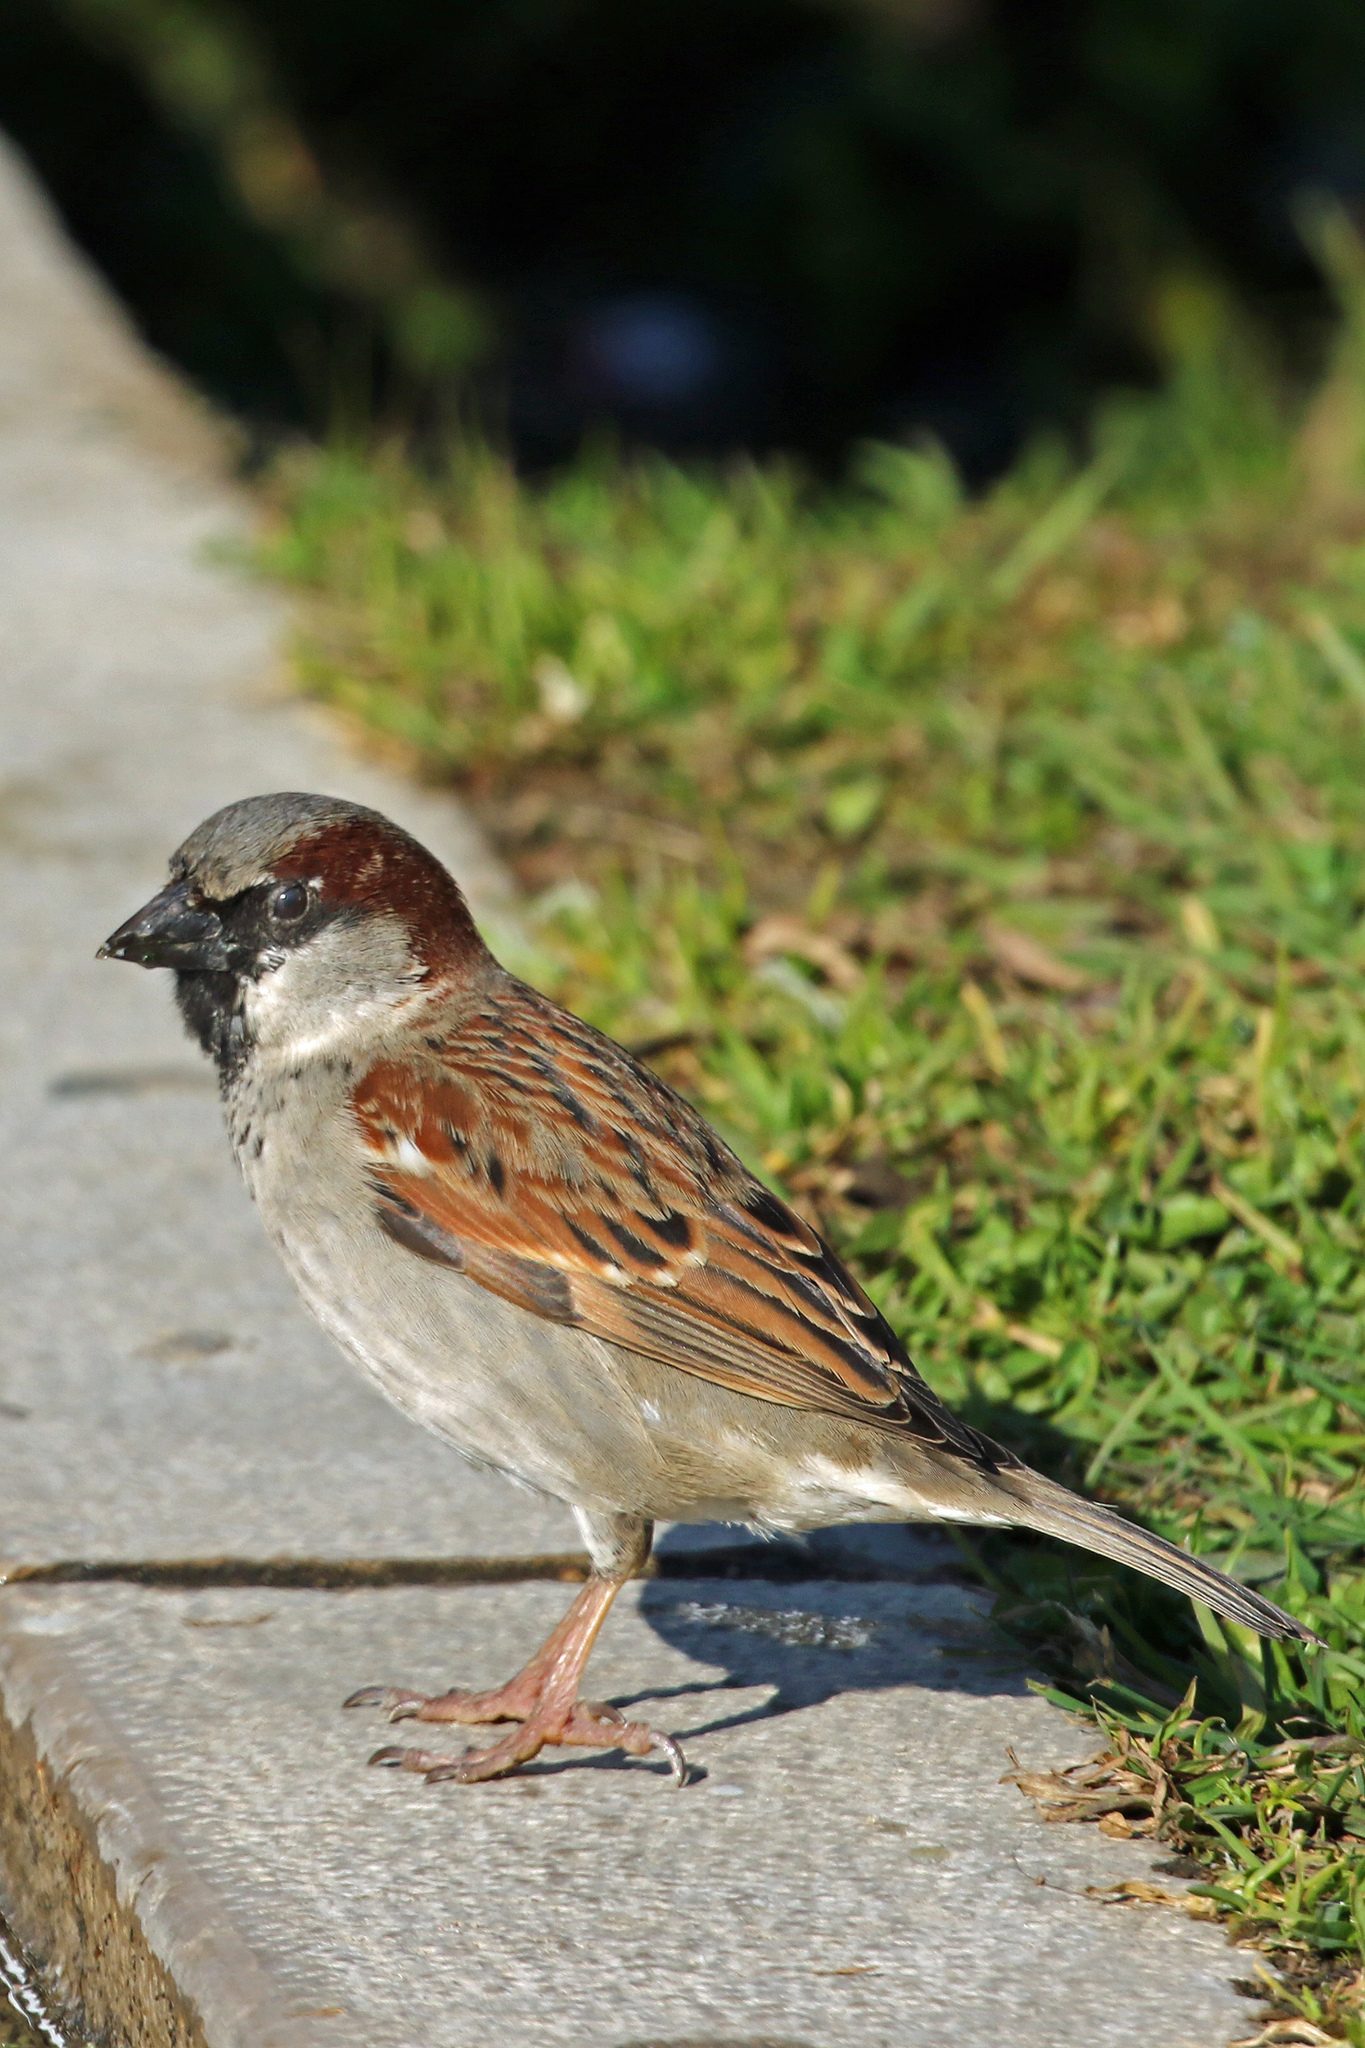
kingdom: Animalia
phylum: Chordata
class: Aves
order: Passeriformes
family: Passeridae
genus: Passer
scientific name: Passer domesticus
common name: House sparrow
